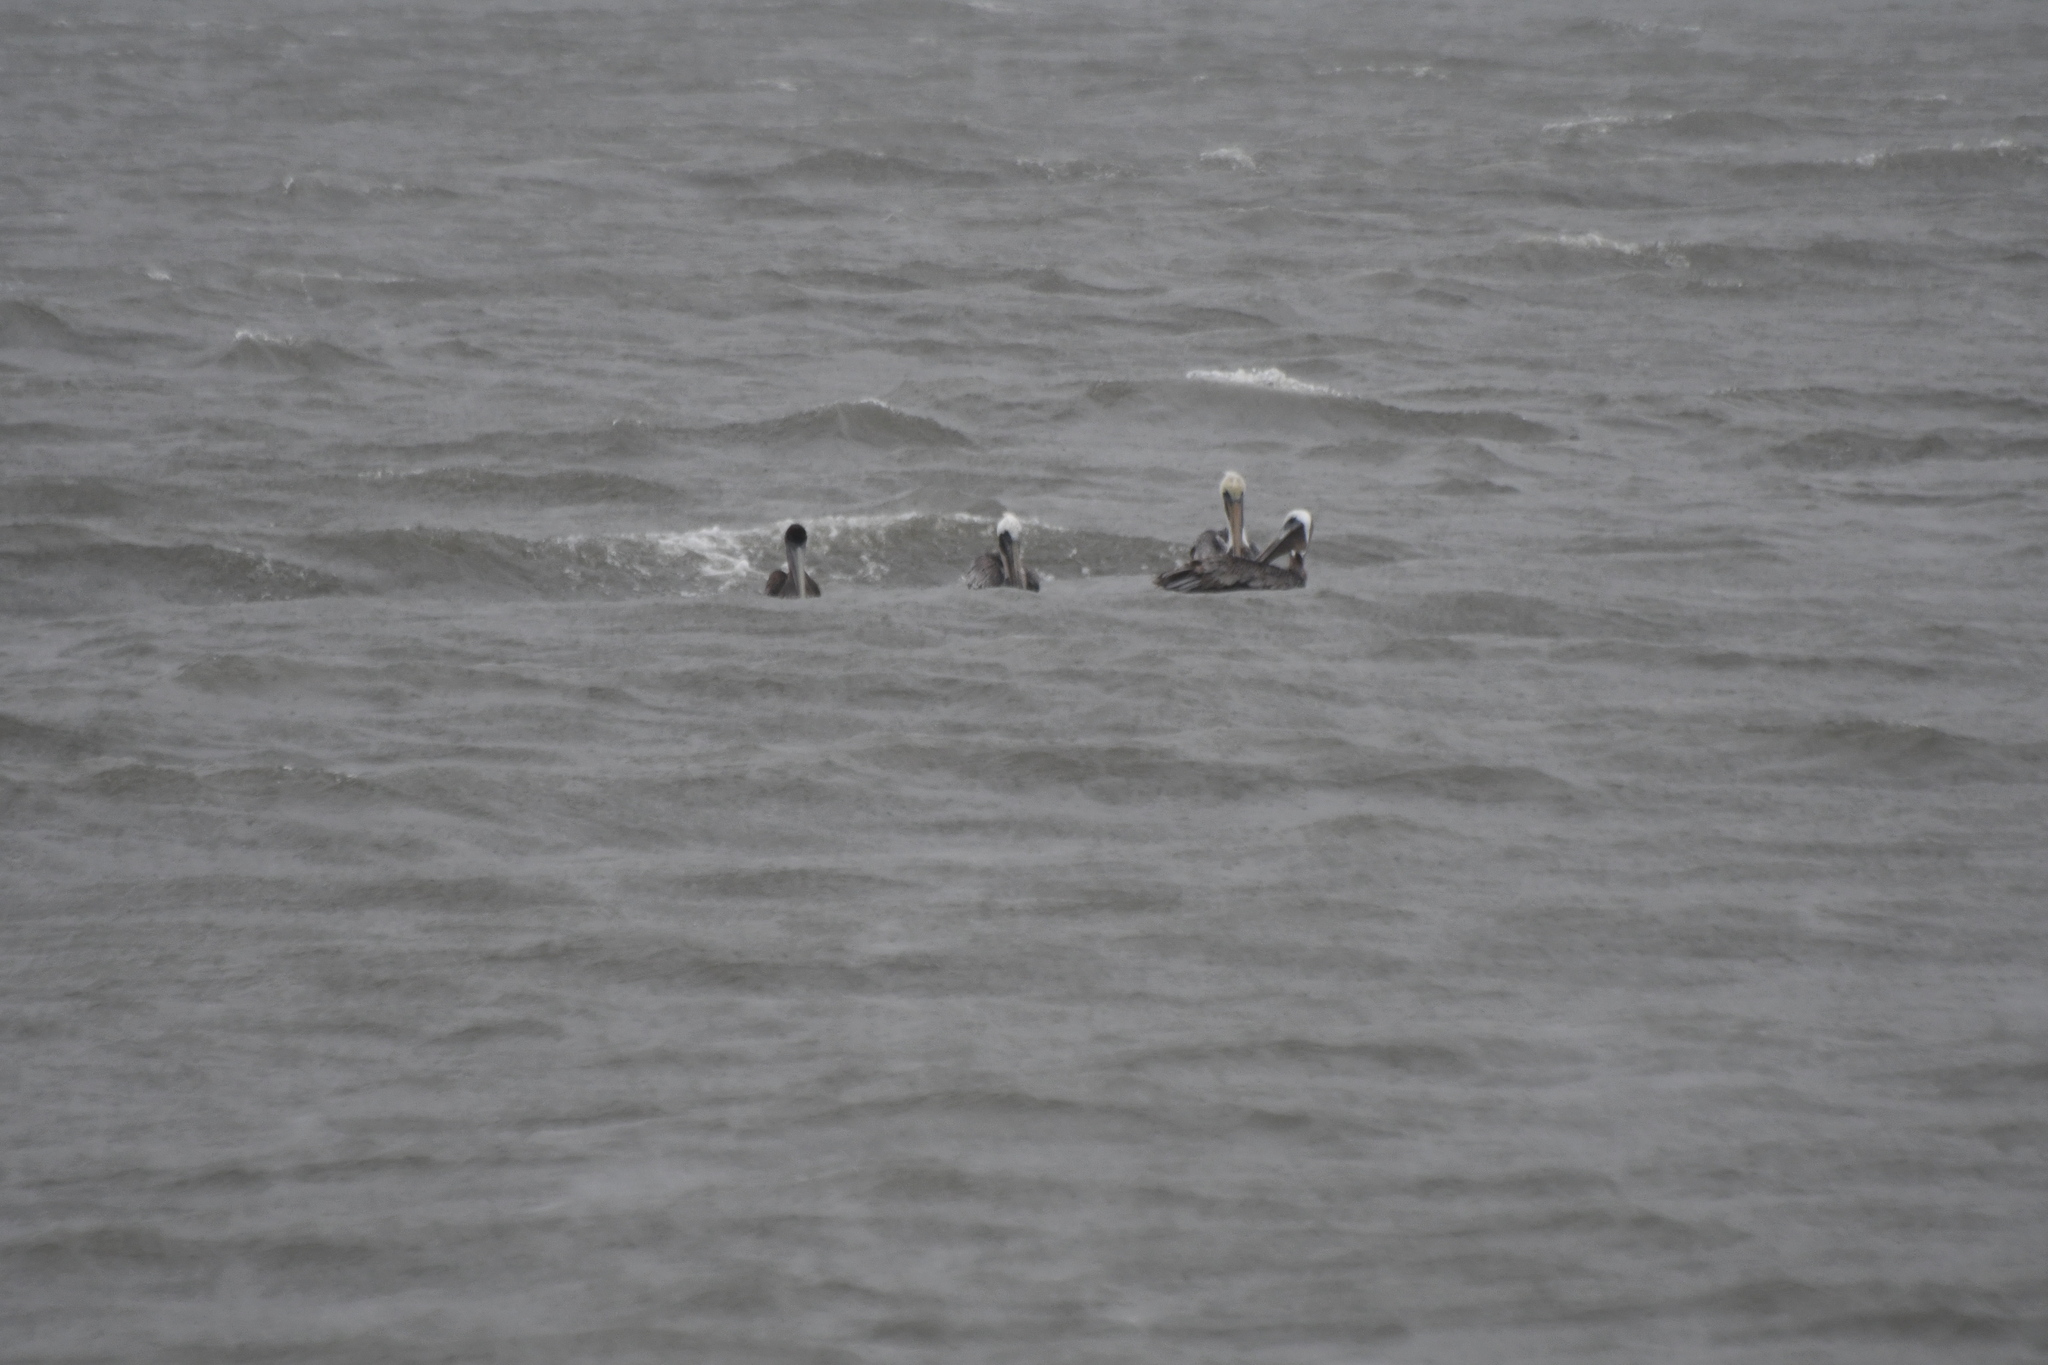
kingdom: Animalia
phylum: Chordata
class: Aves
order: Pelecaniformes
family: Pelecanidae
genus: Pelecanus
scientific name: Pelecanus occidentalis
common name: Brown pelican
